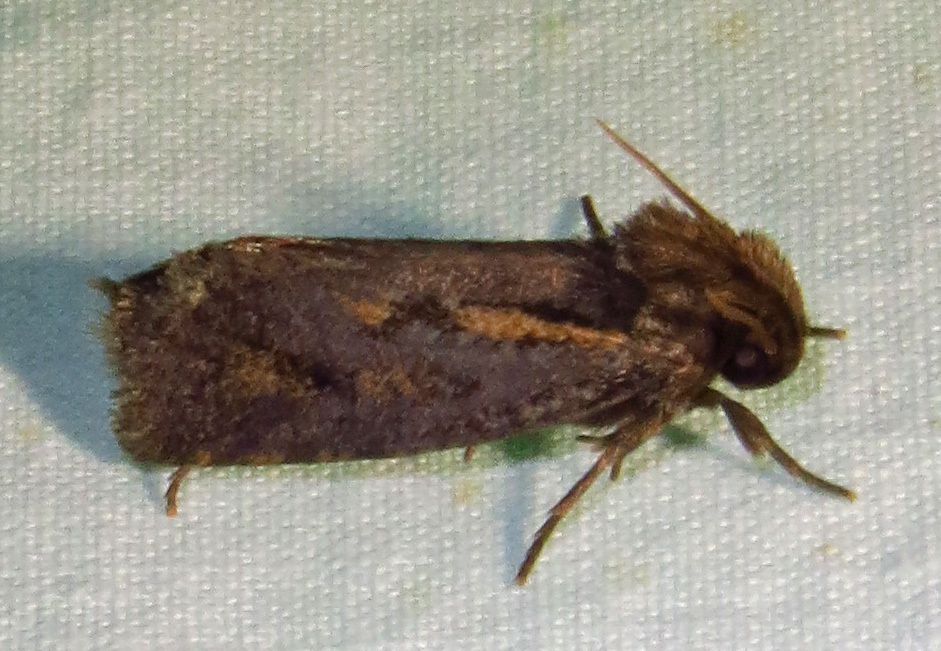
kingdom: Animalia
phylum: Arthropoda
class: Insecta
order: Lepidoptera
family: Tineidae
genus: Acrolophus
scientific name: Acrolophus popeanella
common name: Clemens' grass tubeworm moth
